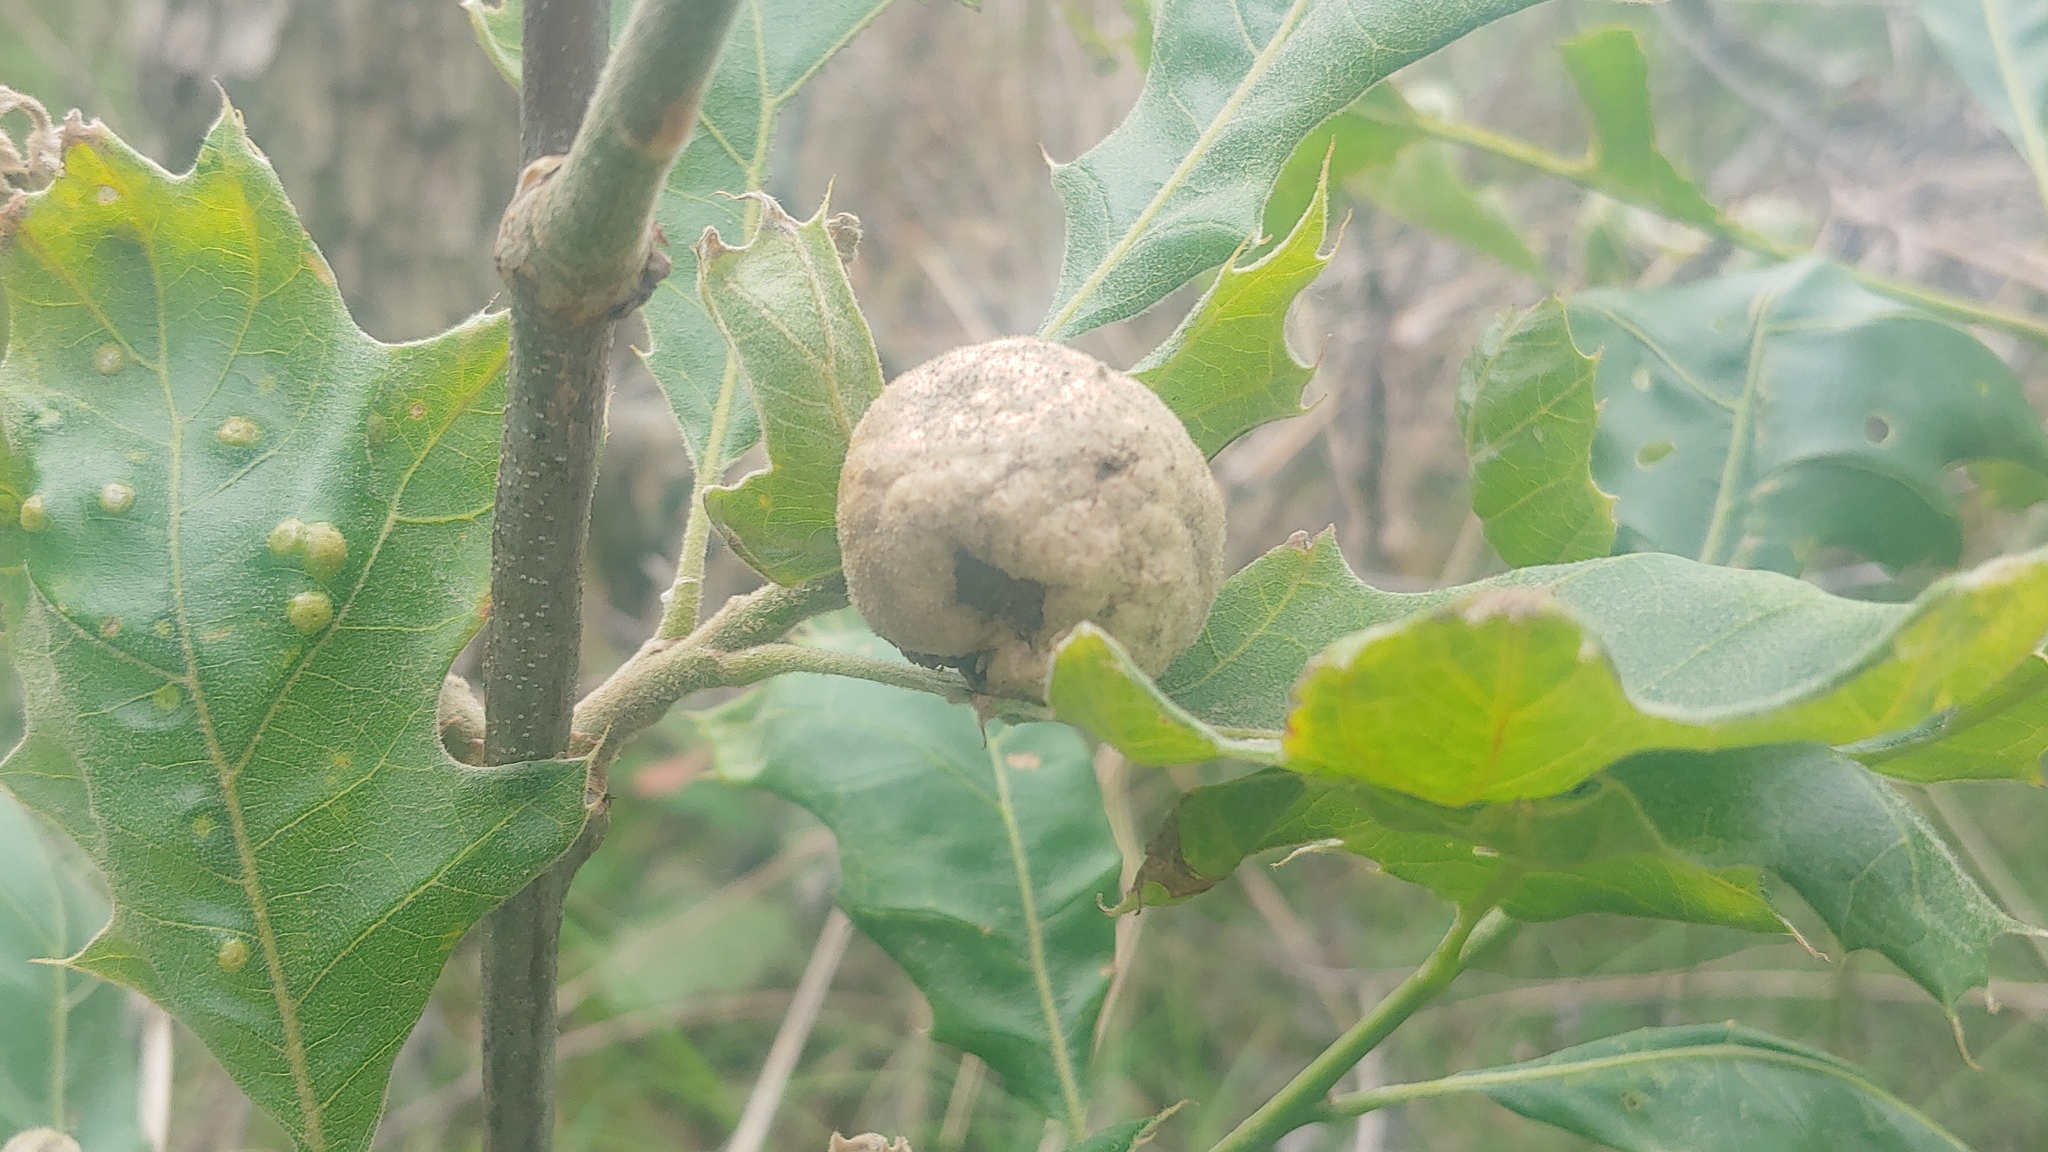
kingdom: Animalia
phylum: Arthropoda
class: Insecta
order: Hymenoptera
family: Cynipidae
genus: Amphibolips
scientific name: Amphibolips
